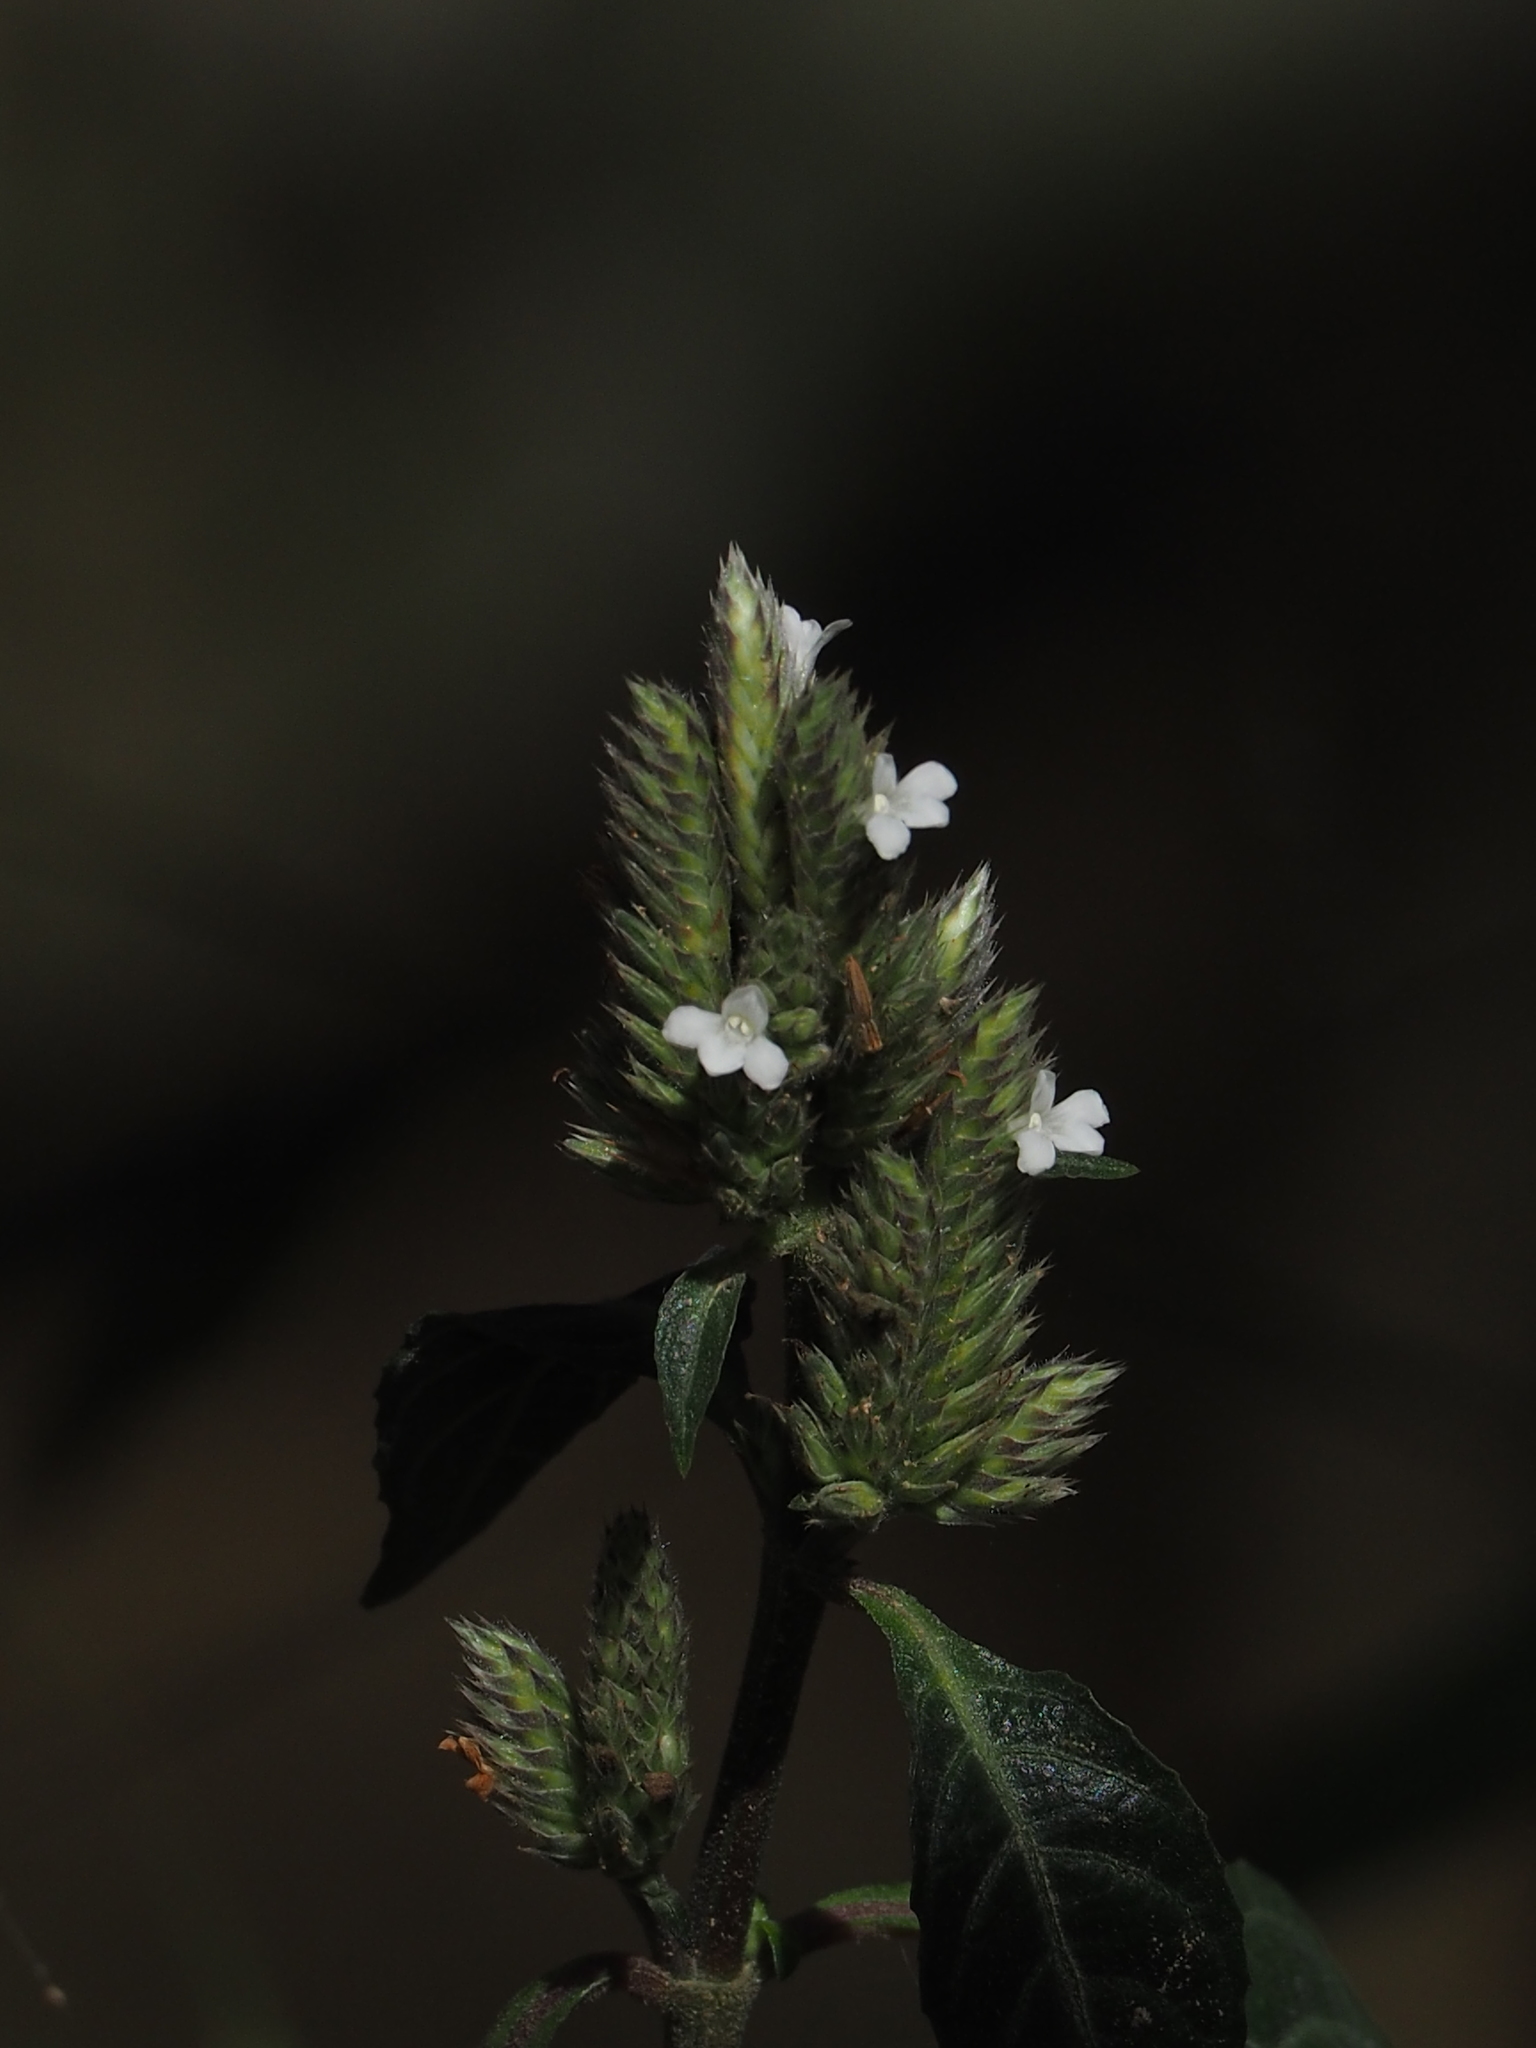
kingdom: Plantae
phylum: Tracheophyta
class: Magnoliopsida
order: Lamiales
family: Acanthaceae
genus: Lepidagathis
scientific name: Lepidagathis formosensis
